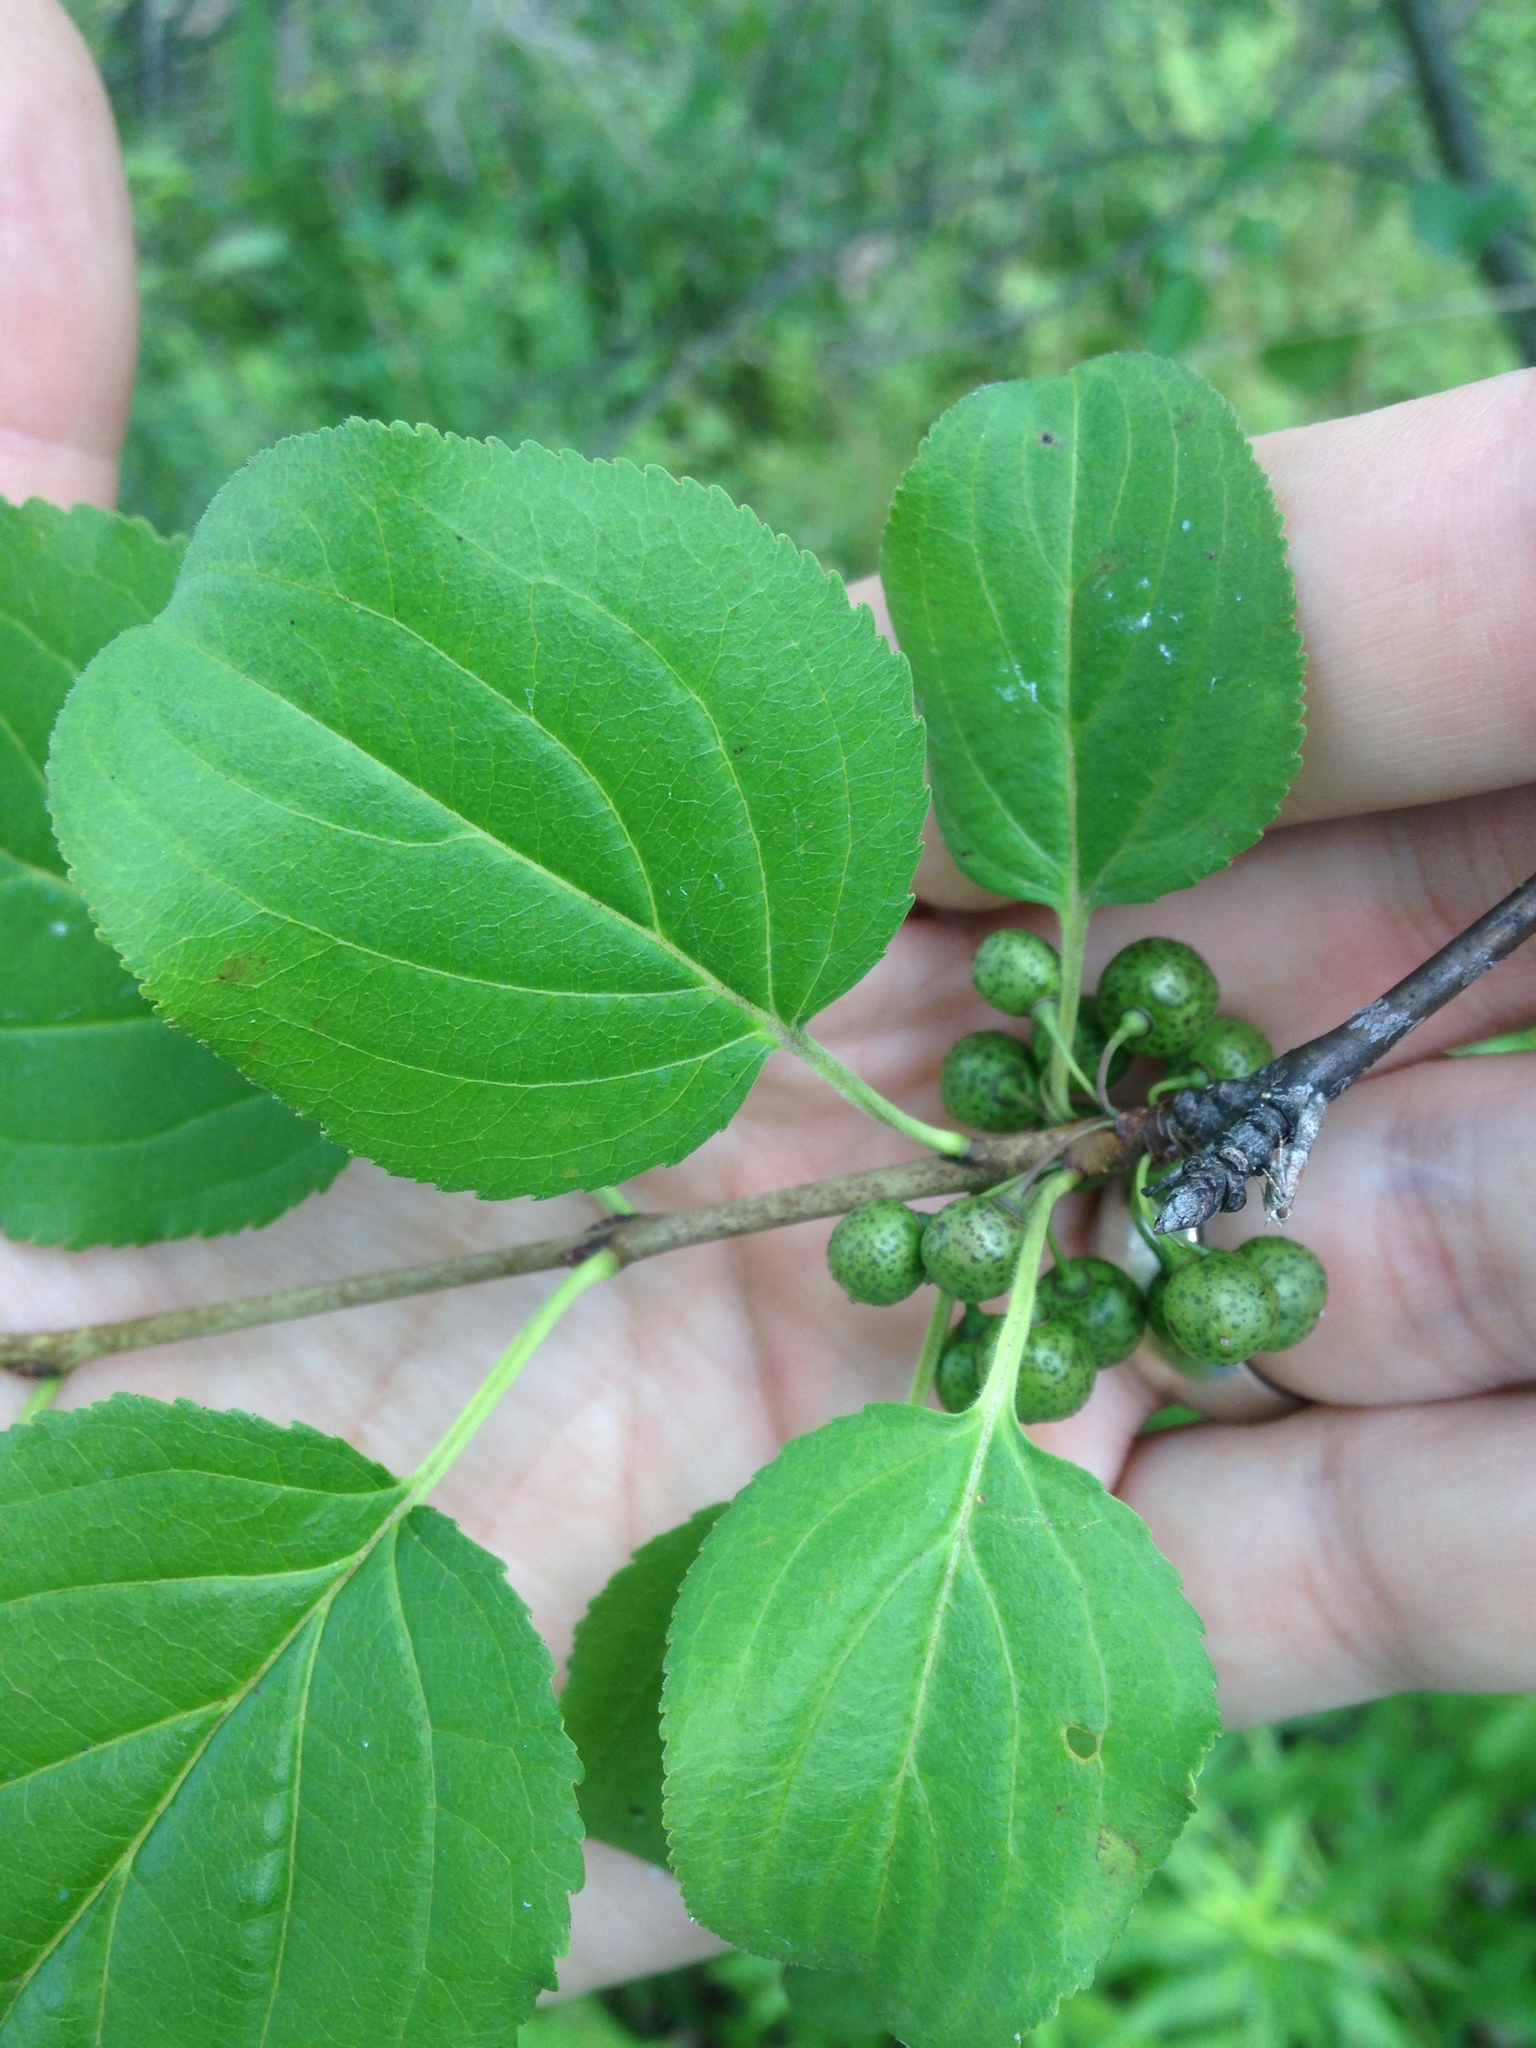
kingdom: Plantae
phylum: Tracheophyta
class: Magnoliopsida
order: Rosales
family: Rhamnaceae
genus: Rhamnus
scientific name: Rhamnus cathartica
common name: Common buckthorn
